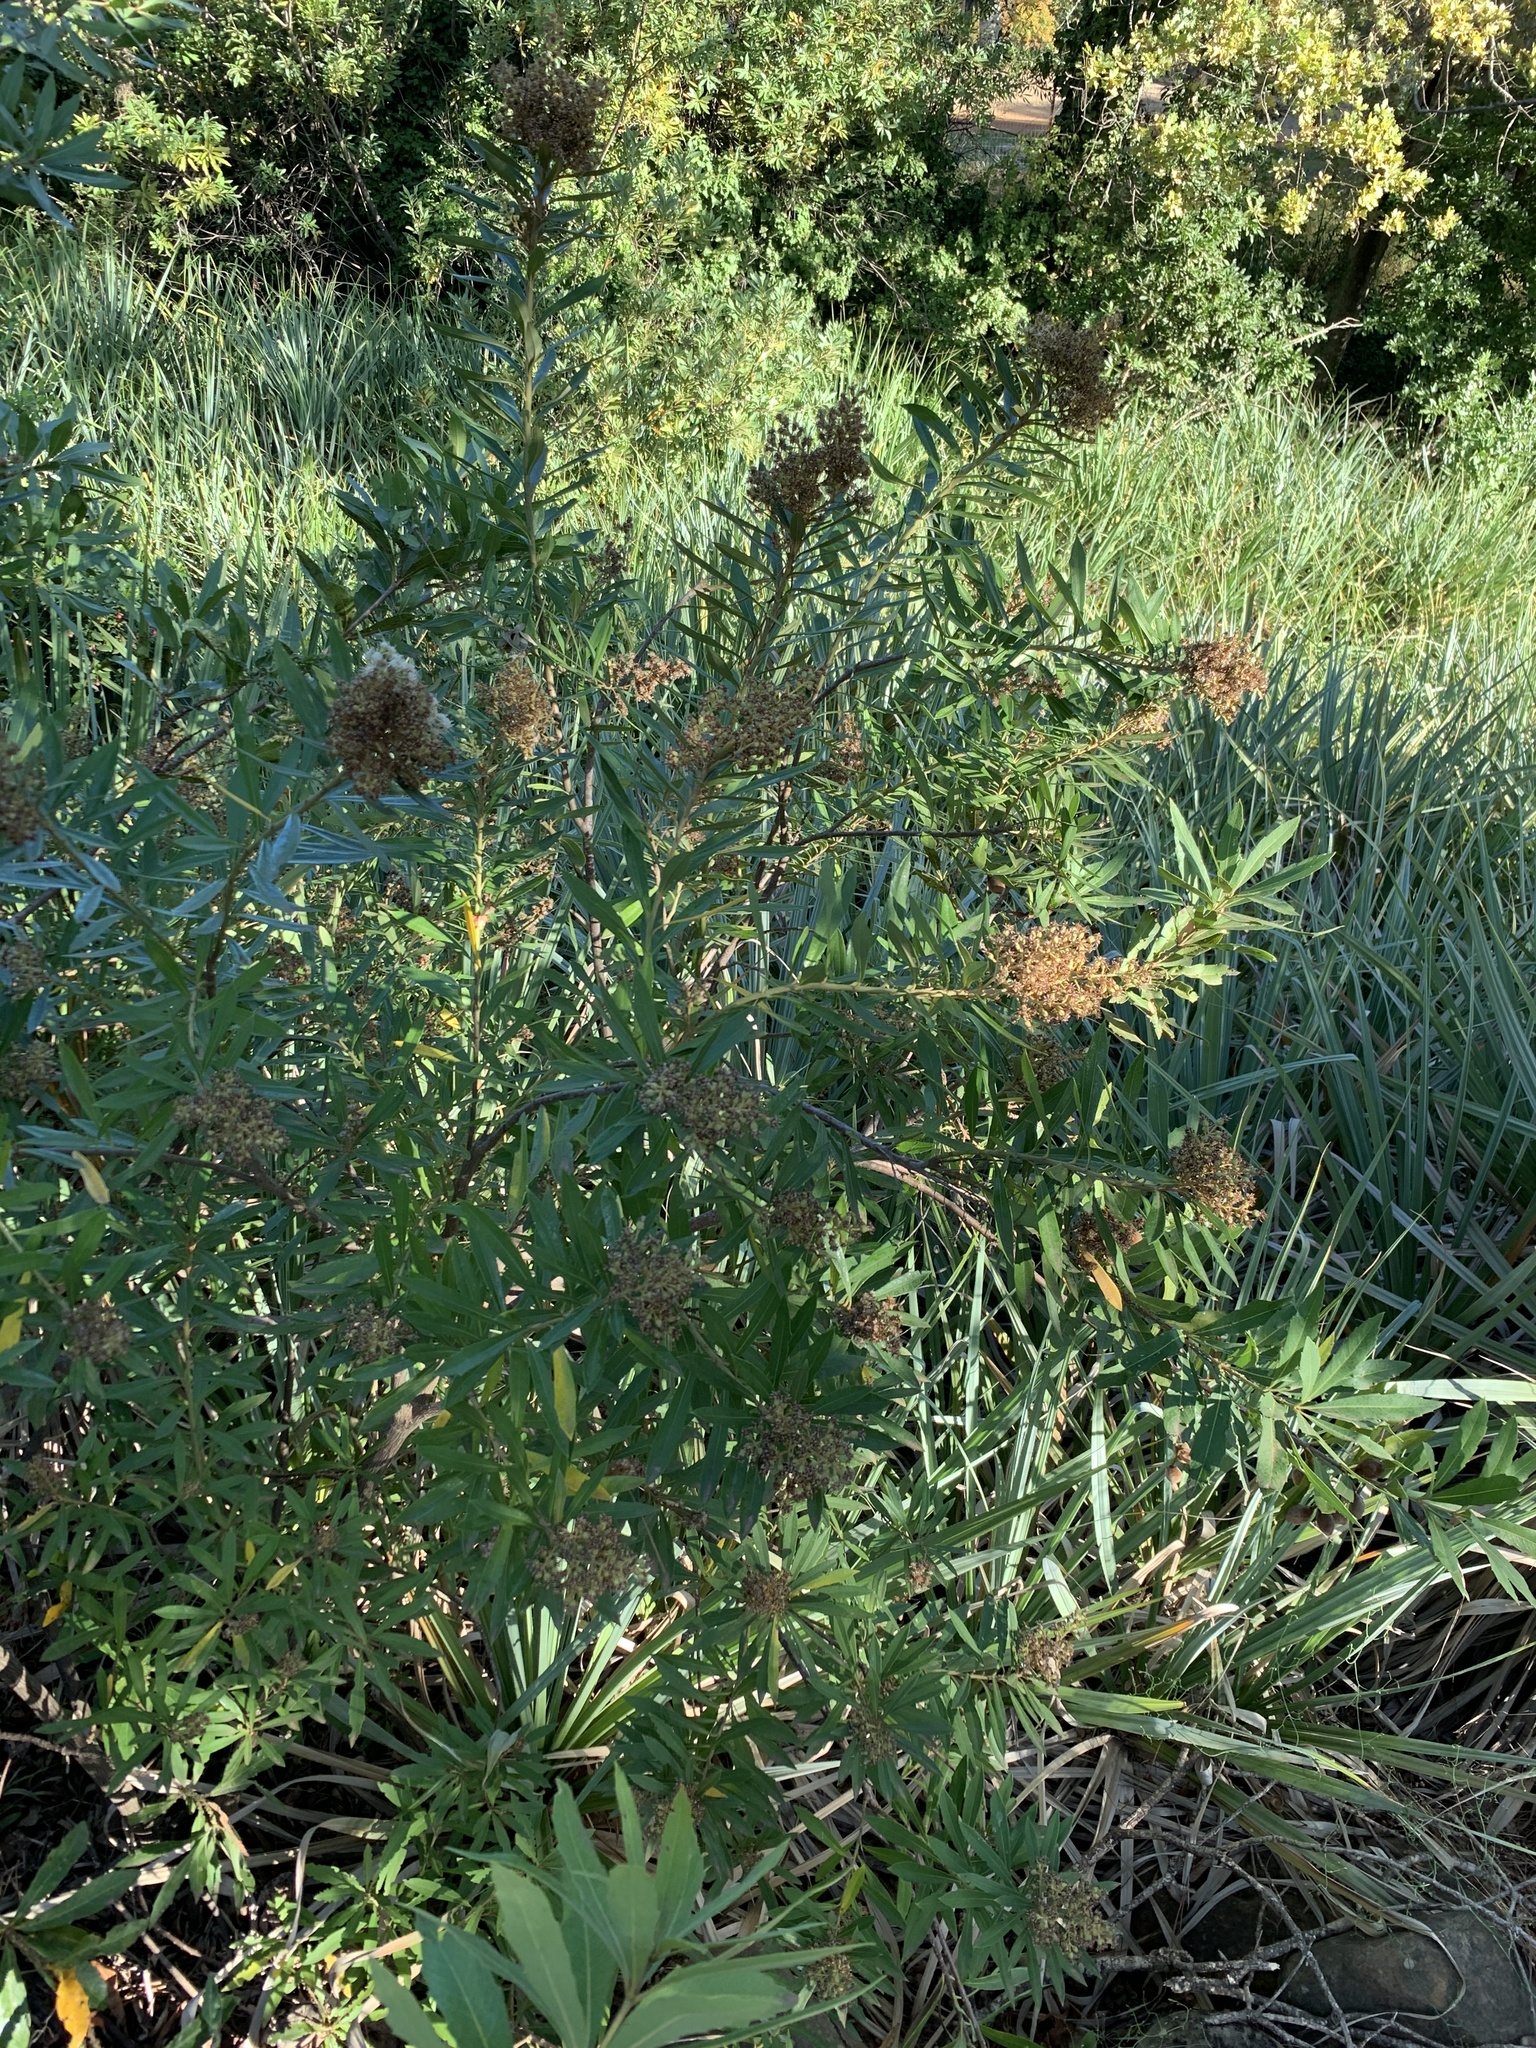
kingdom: Plantae
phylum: Tracheophyta
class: Magnoliopsida
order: Asterales
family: Asteraceae
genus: Brachylaena
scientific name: Brachylaena neriifolia
